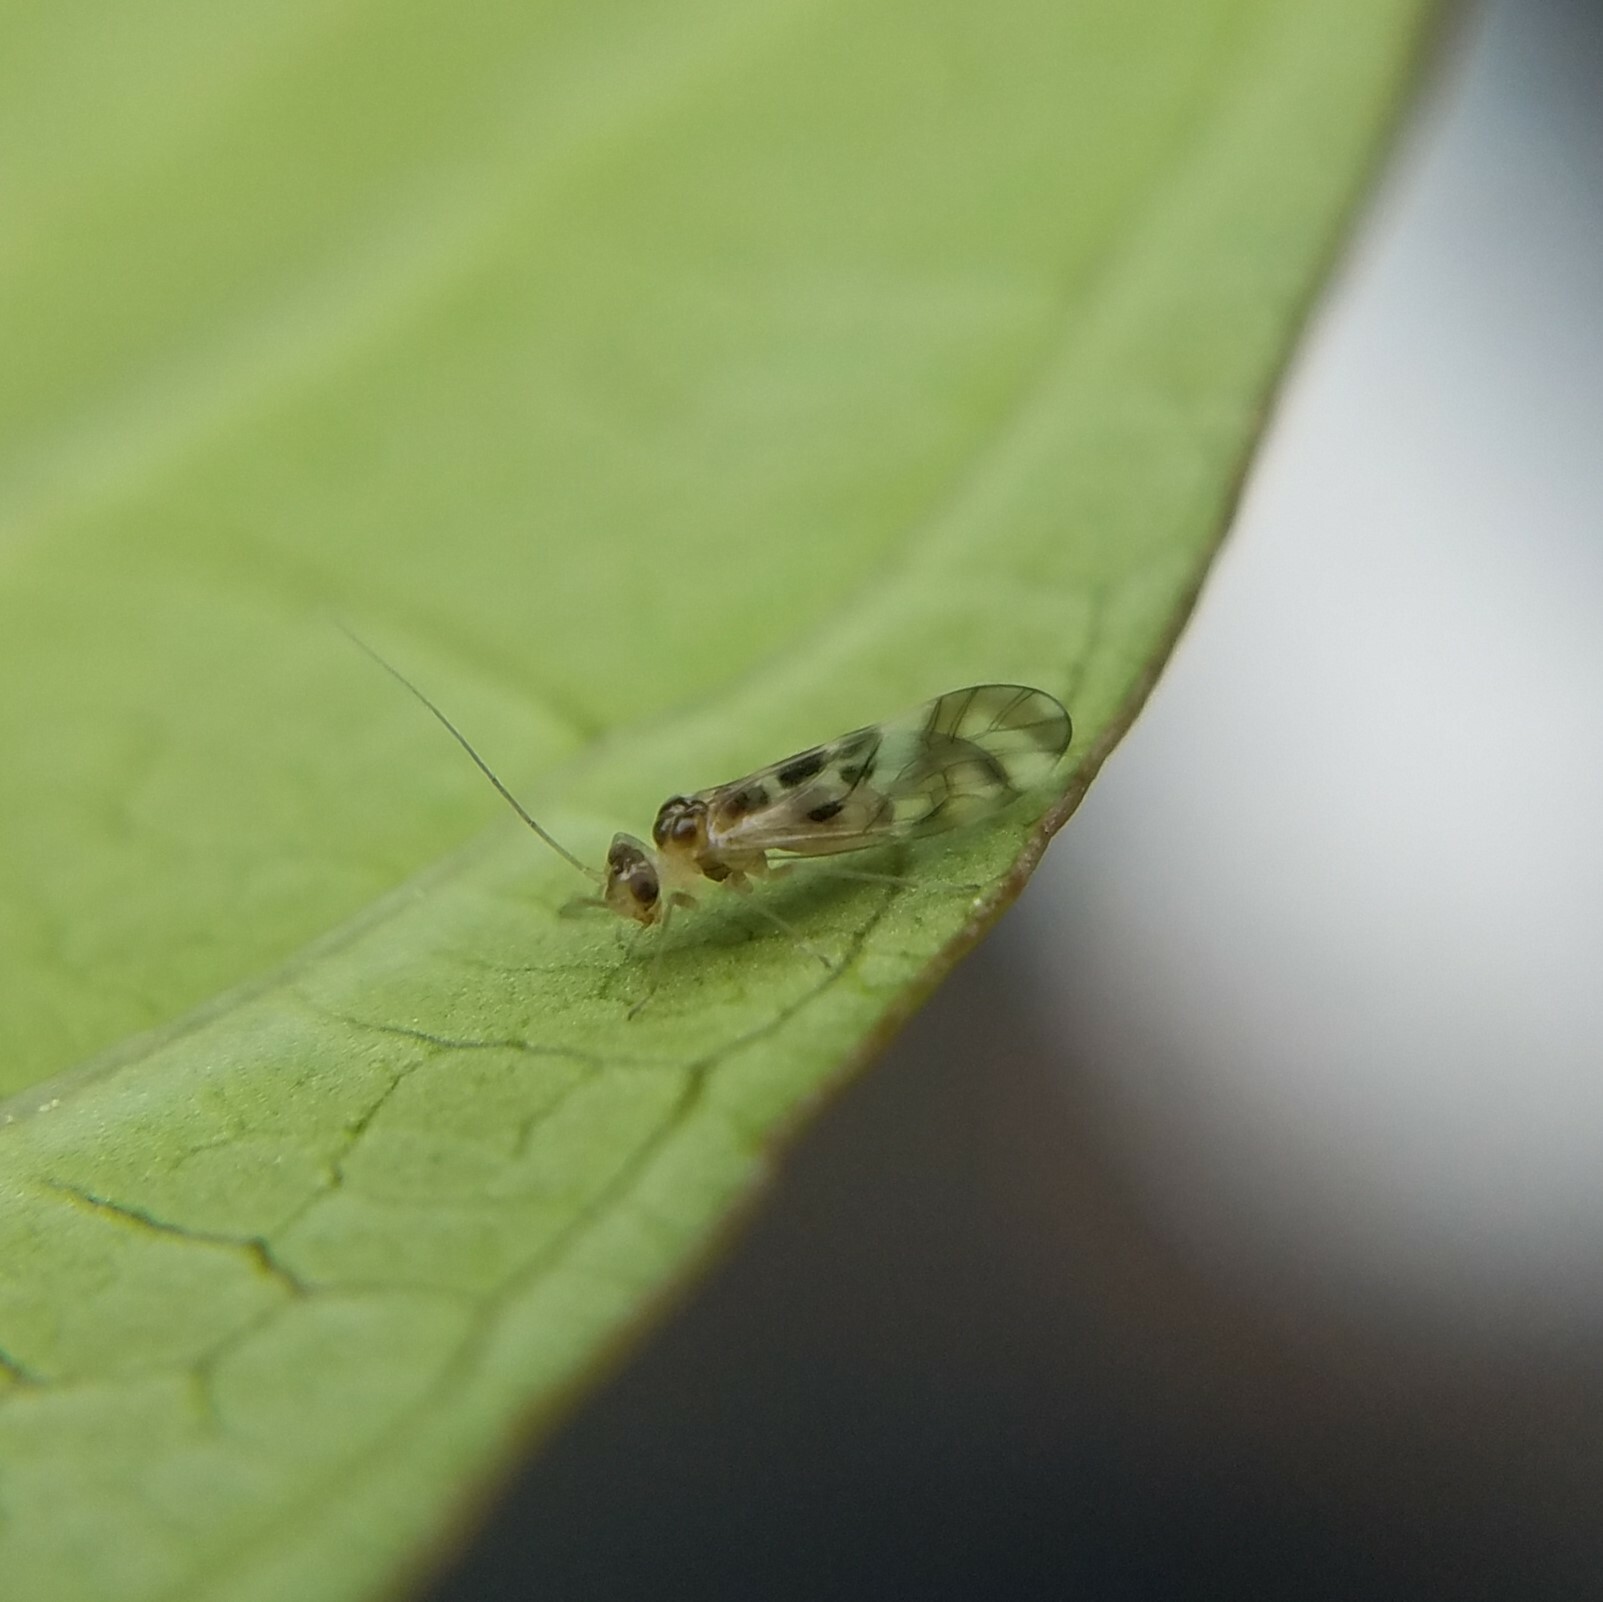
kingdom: Animalia
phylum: Arthropoda
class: Insecta
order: Psocodea
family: Stenopsocidae
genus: Graphopsocus
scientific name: Graphopsocus cruciatus
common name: Lizard bark louse
